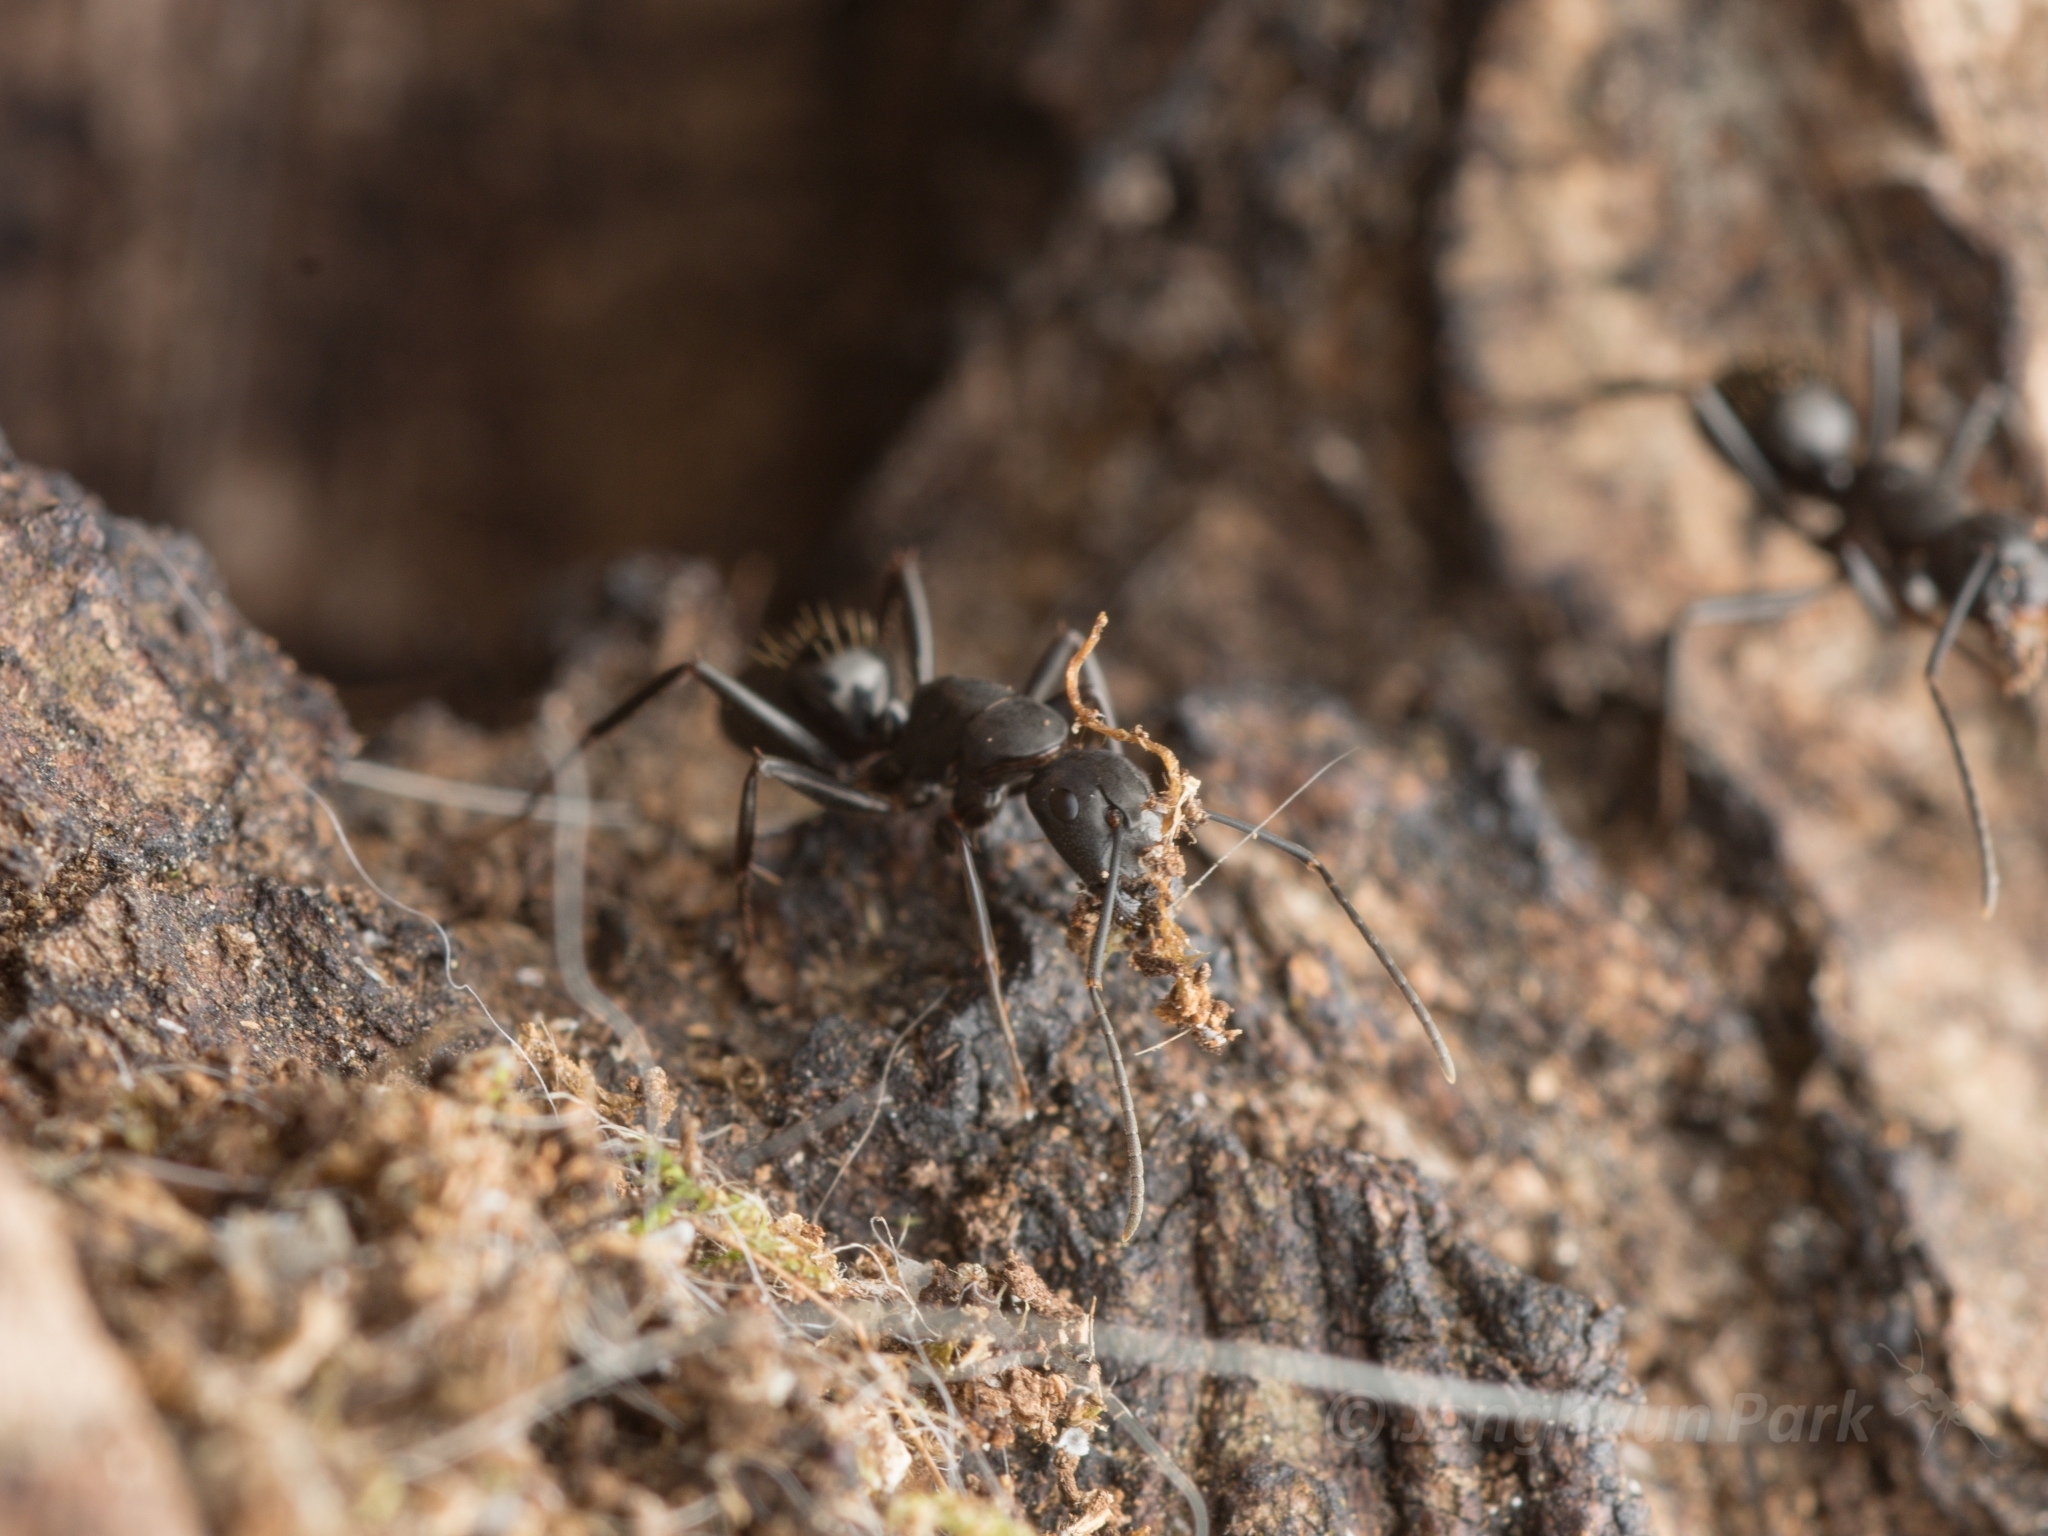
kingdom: Animalia
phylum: Arthropoda
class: Insecta
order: Hymenoptera
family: Formicidae
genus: Camponotus
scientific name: Camponotus concavus
